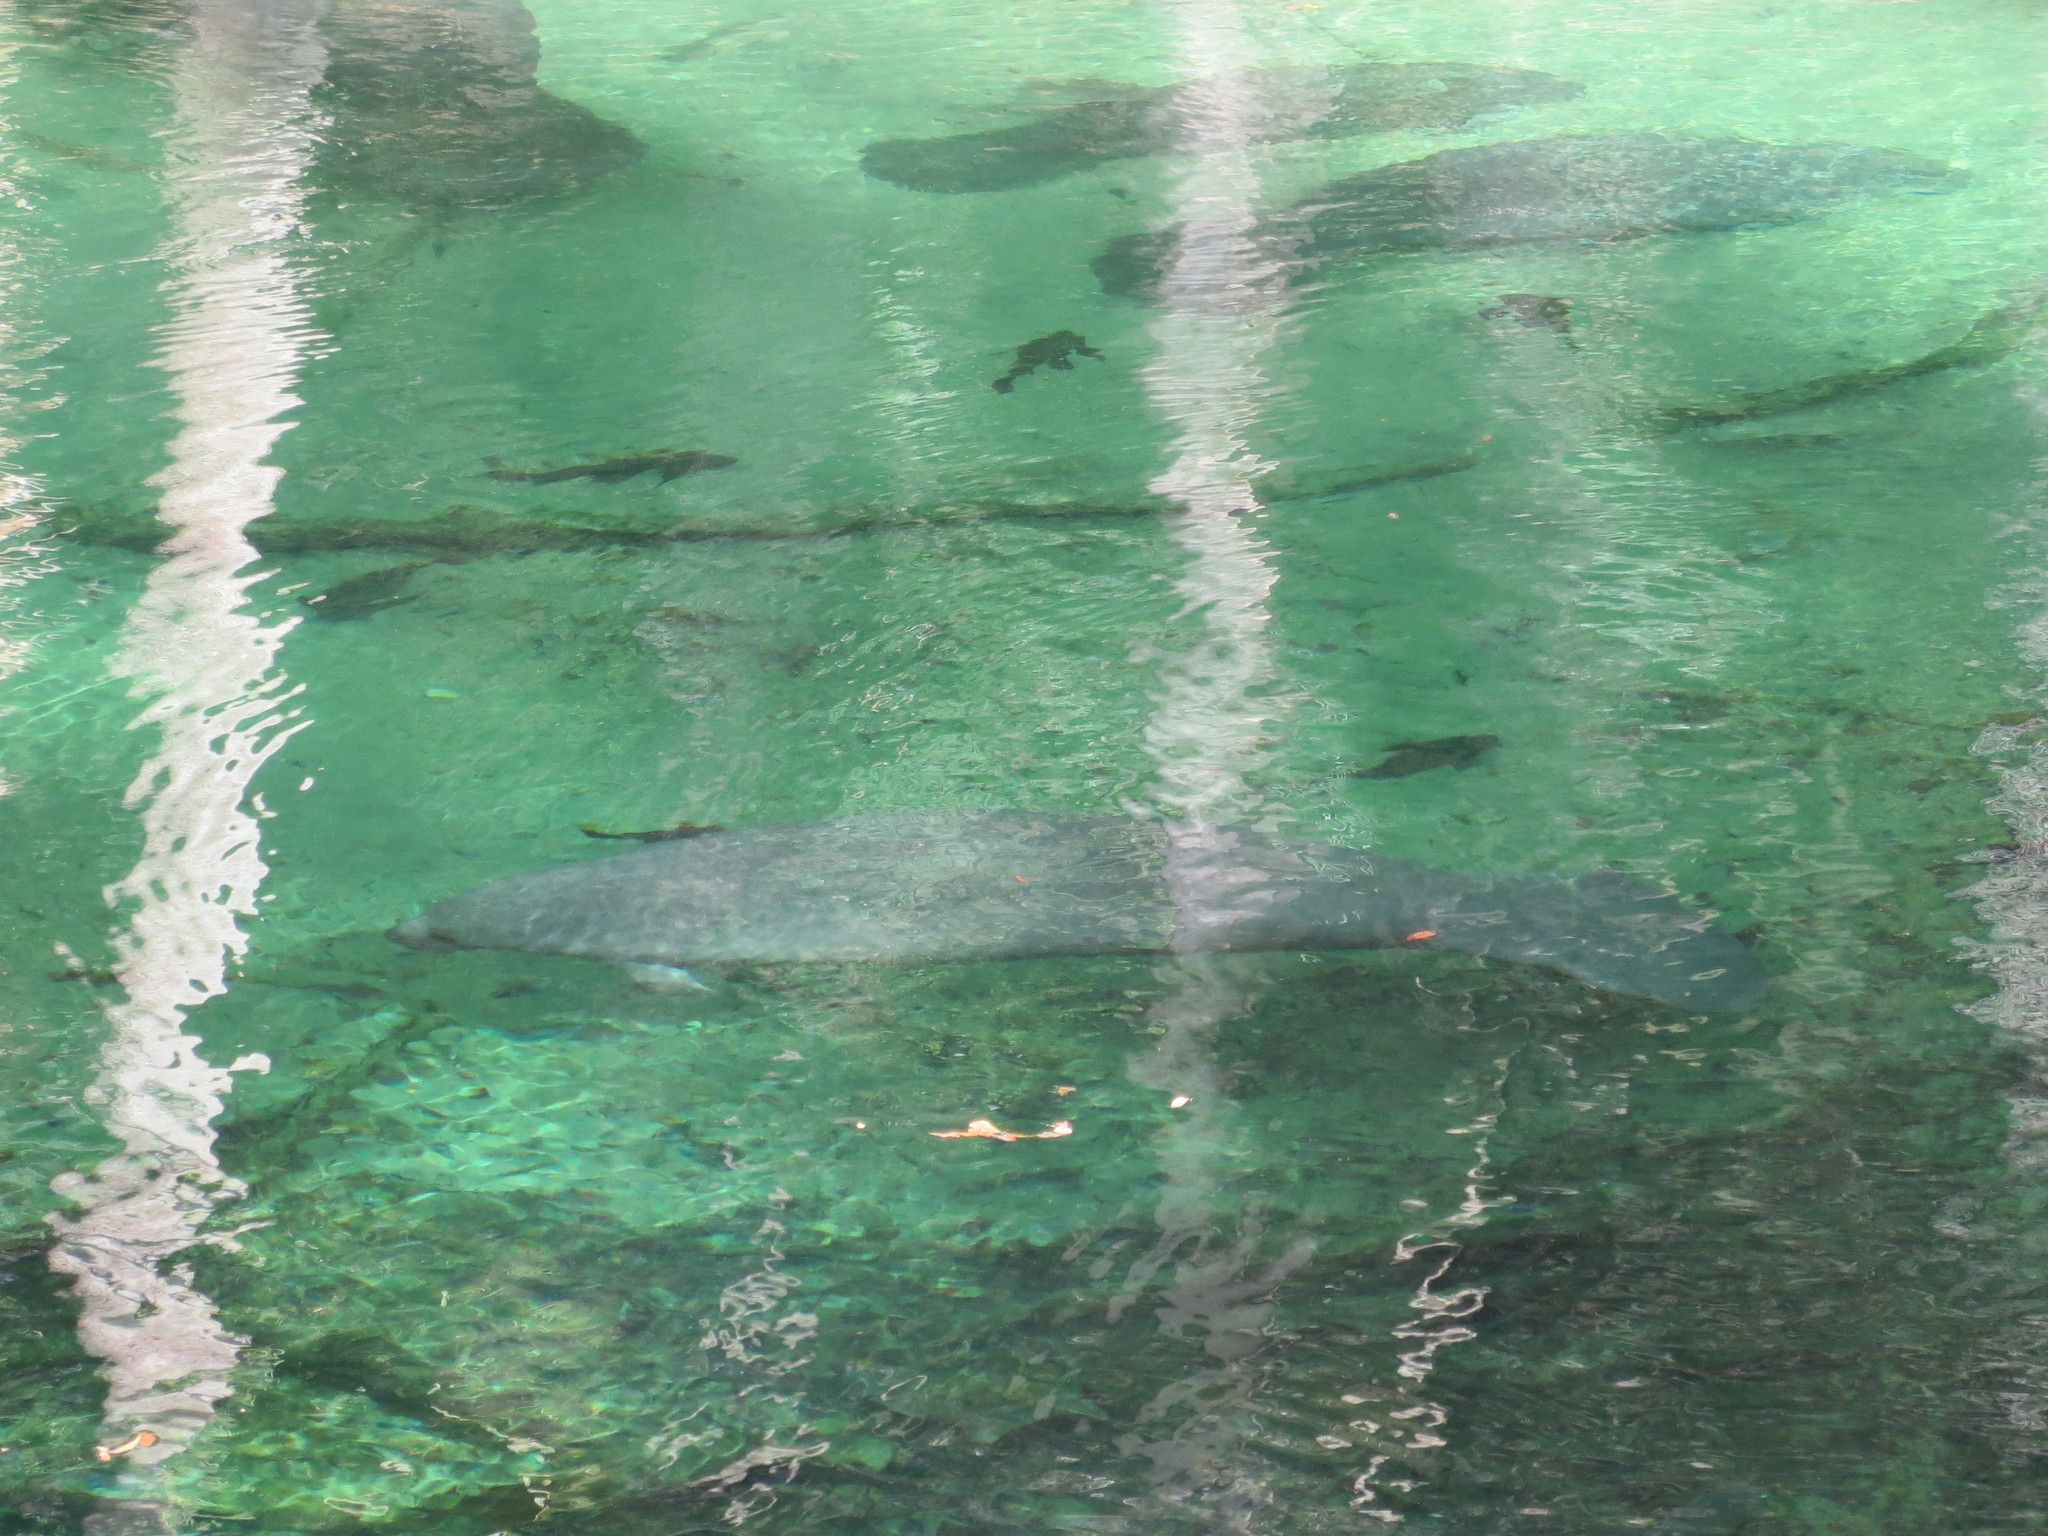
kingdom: Animalia
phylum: Chordata
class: Mammalia
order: Sirenia
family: Trichechidae
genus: Trichechus
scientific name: Trichechus manatus
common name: West indian manatee
